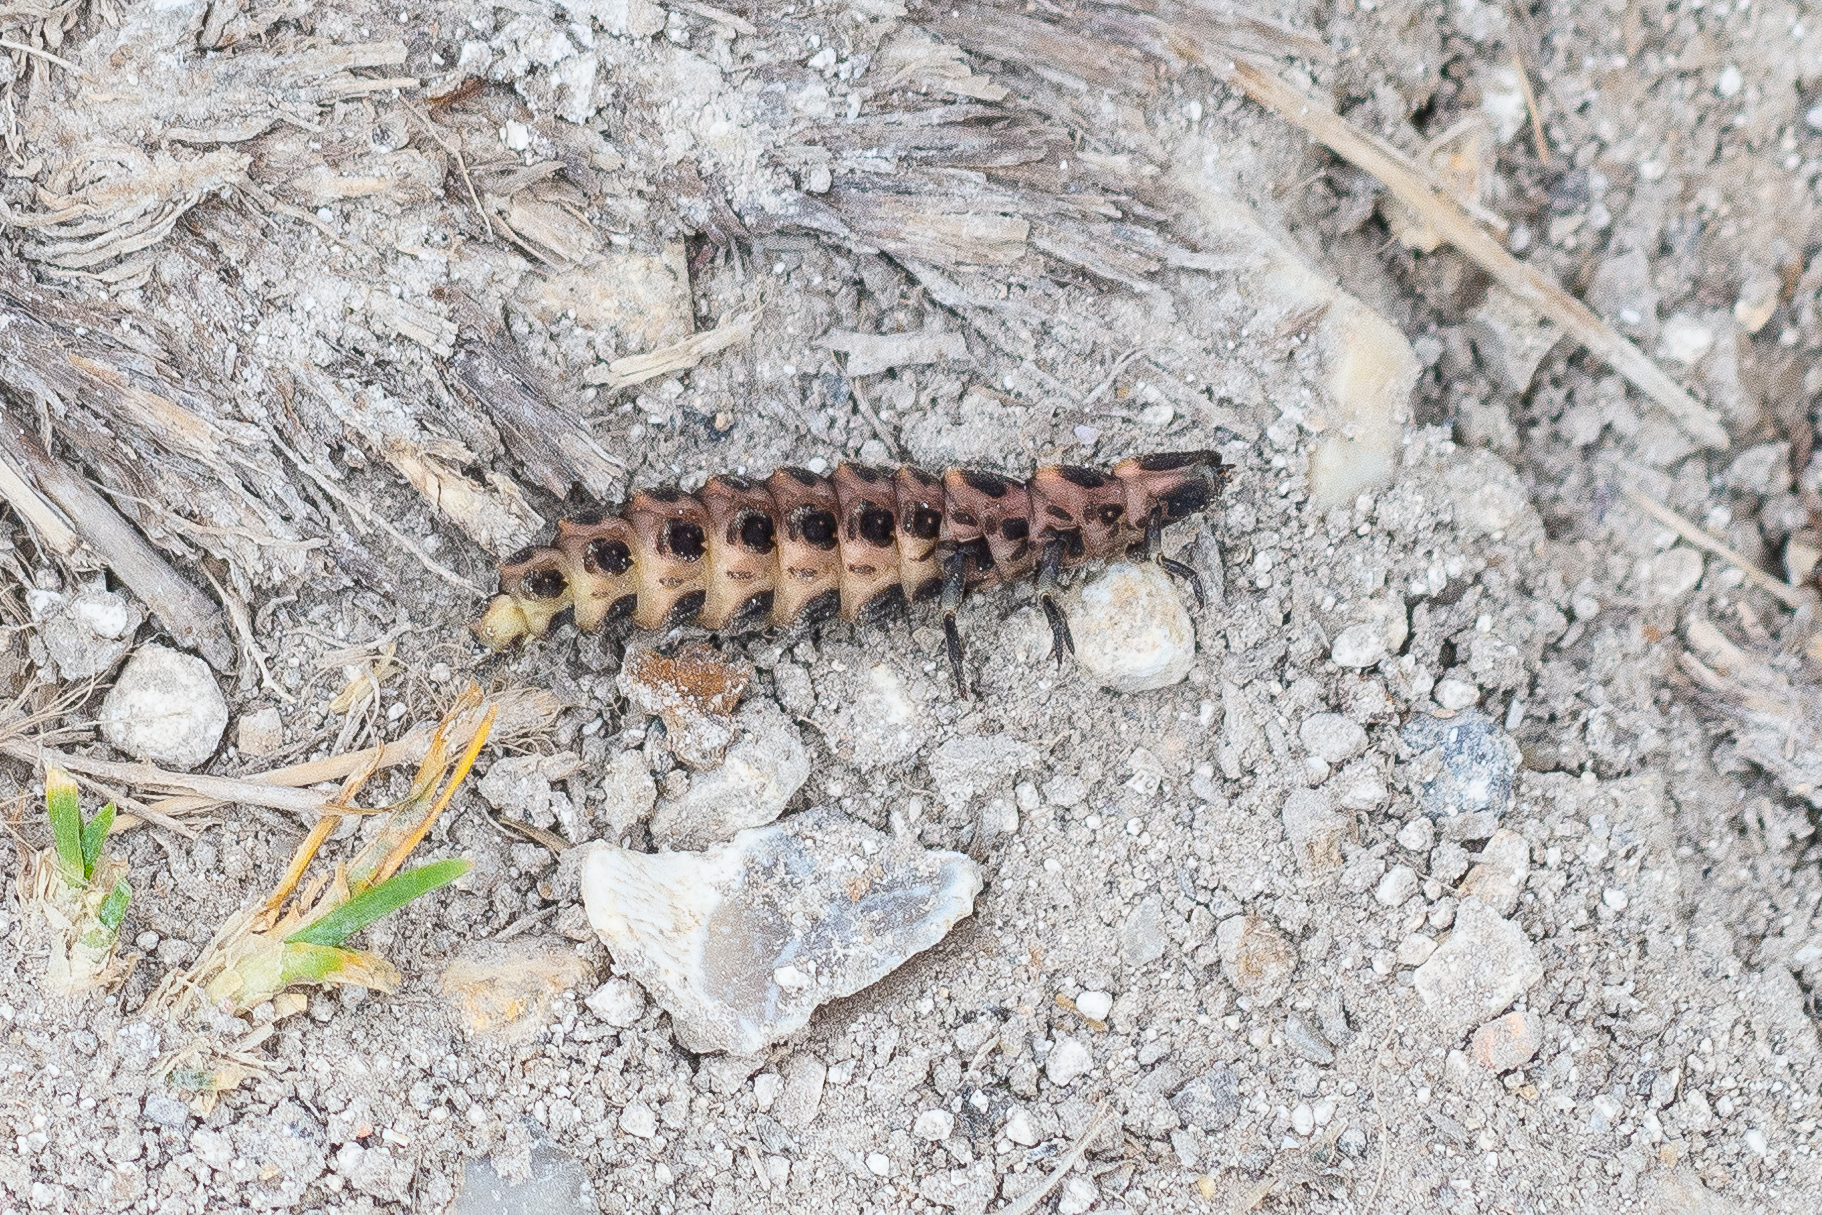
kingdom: Animalia
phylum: Arthropoda
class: Insecta
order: Coleoptera
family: Lampyridae
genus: Lampyris
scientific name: Lampyris noctiluca
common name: Glow-worm
